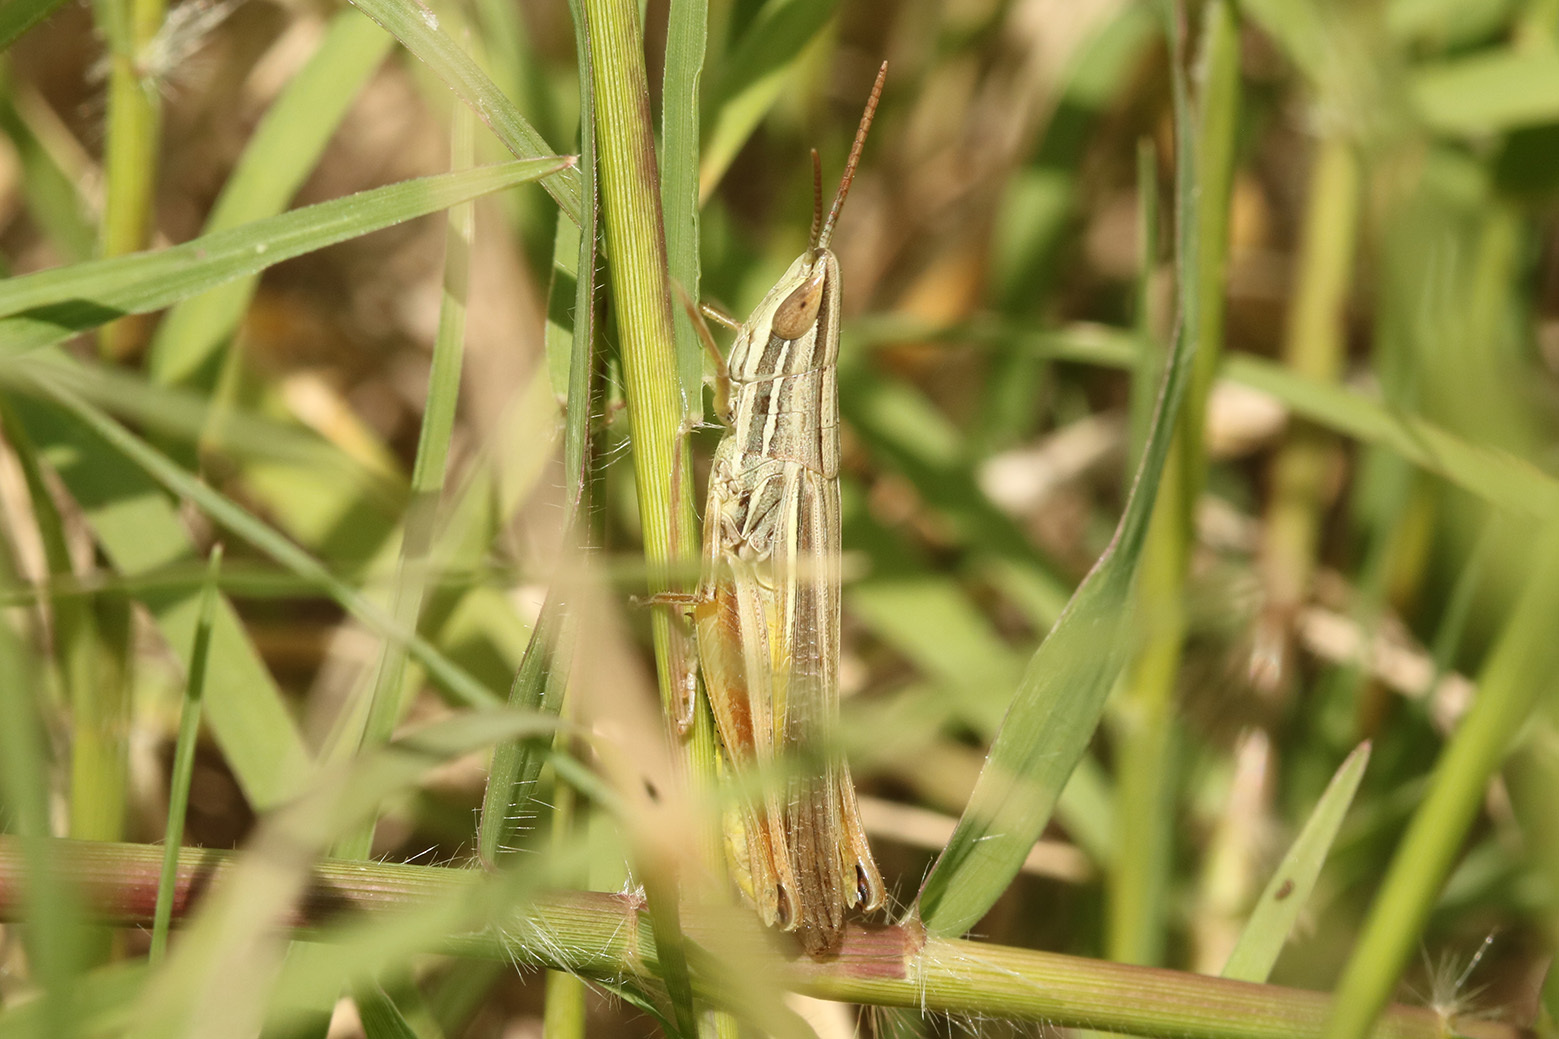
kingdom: Animalia
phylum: Arthropoda
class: Insecta
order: Orthoptera
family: Acrididae
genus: Sinipta
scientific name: Sinipta dalmani
